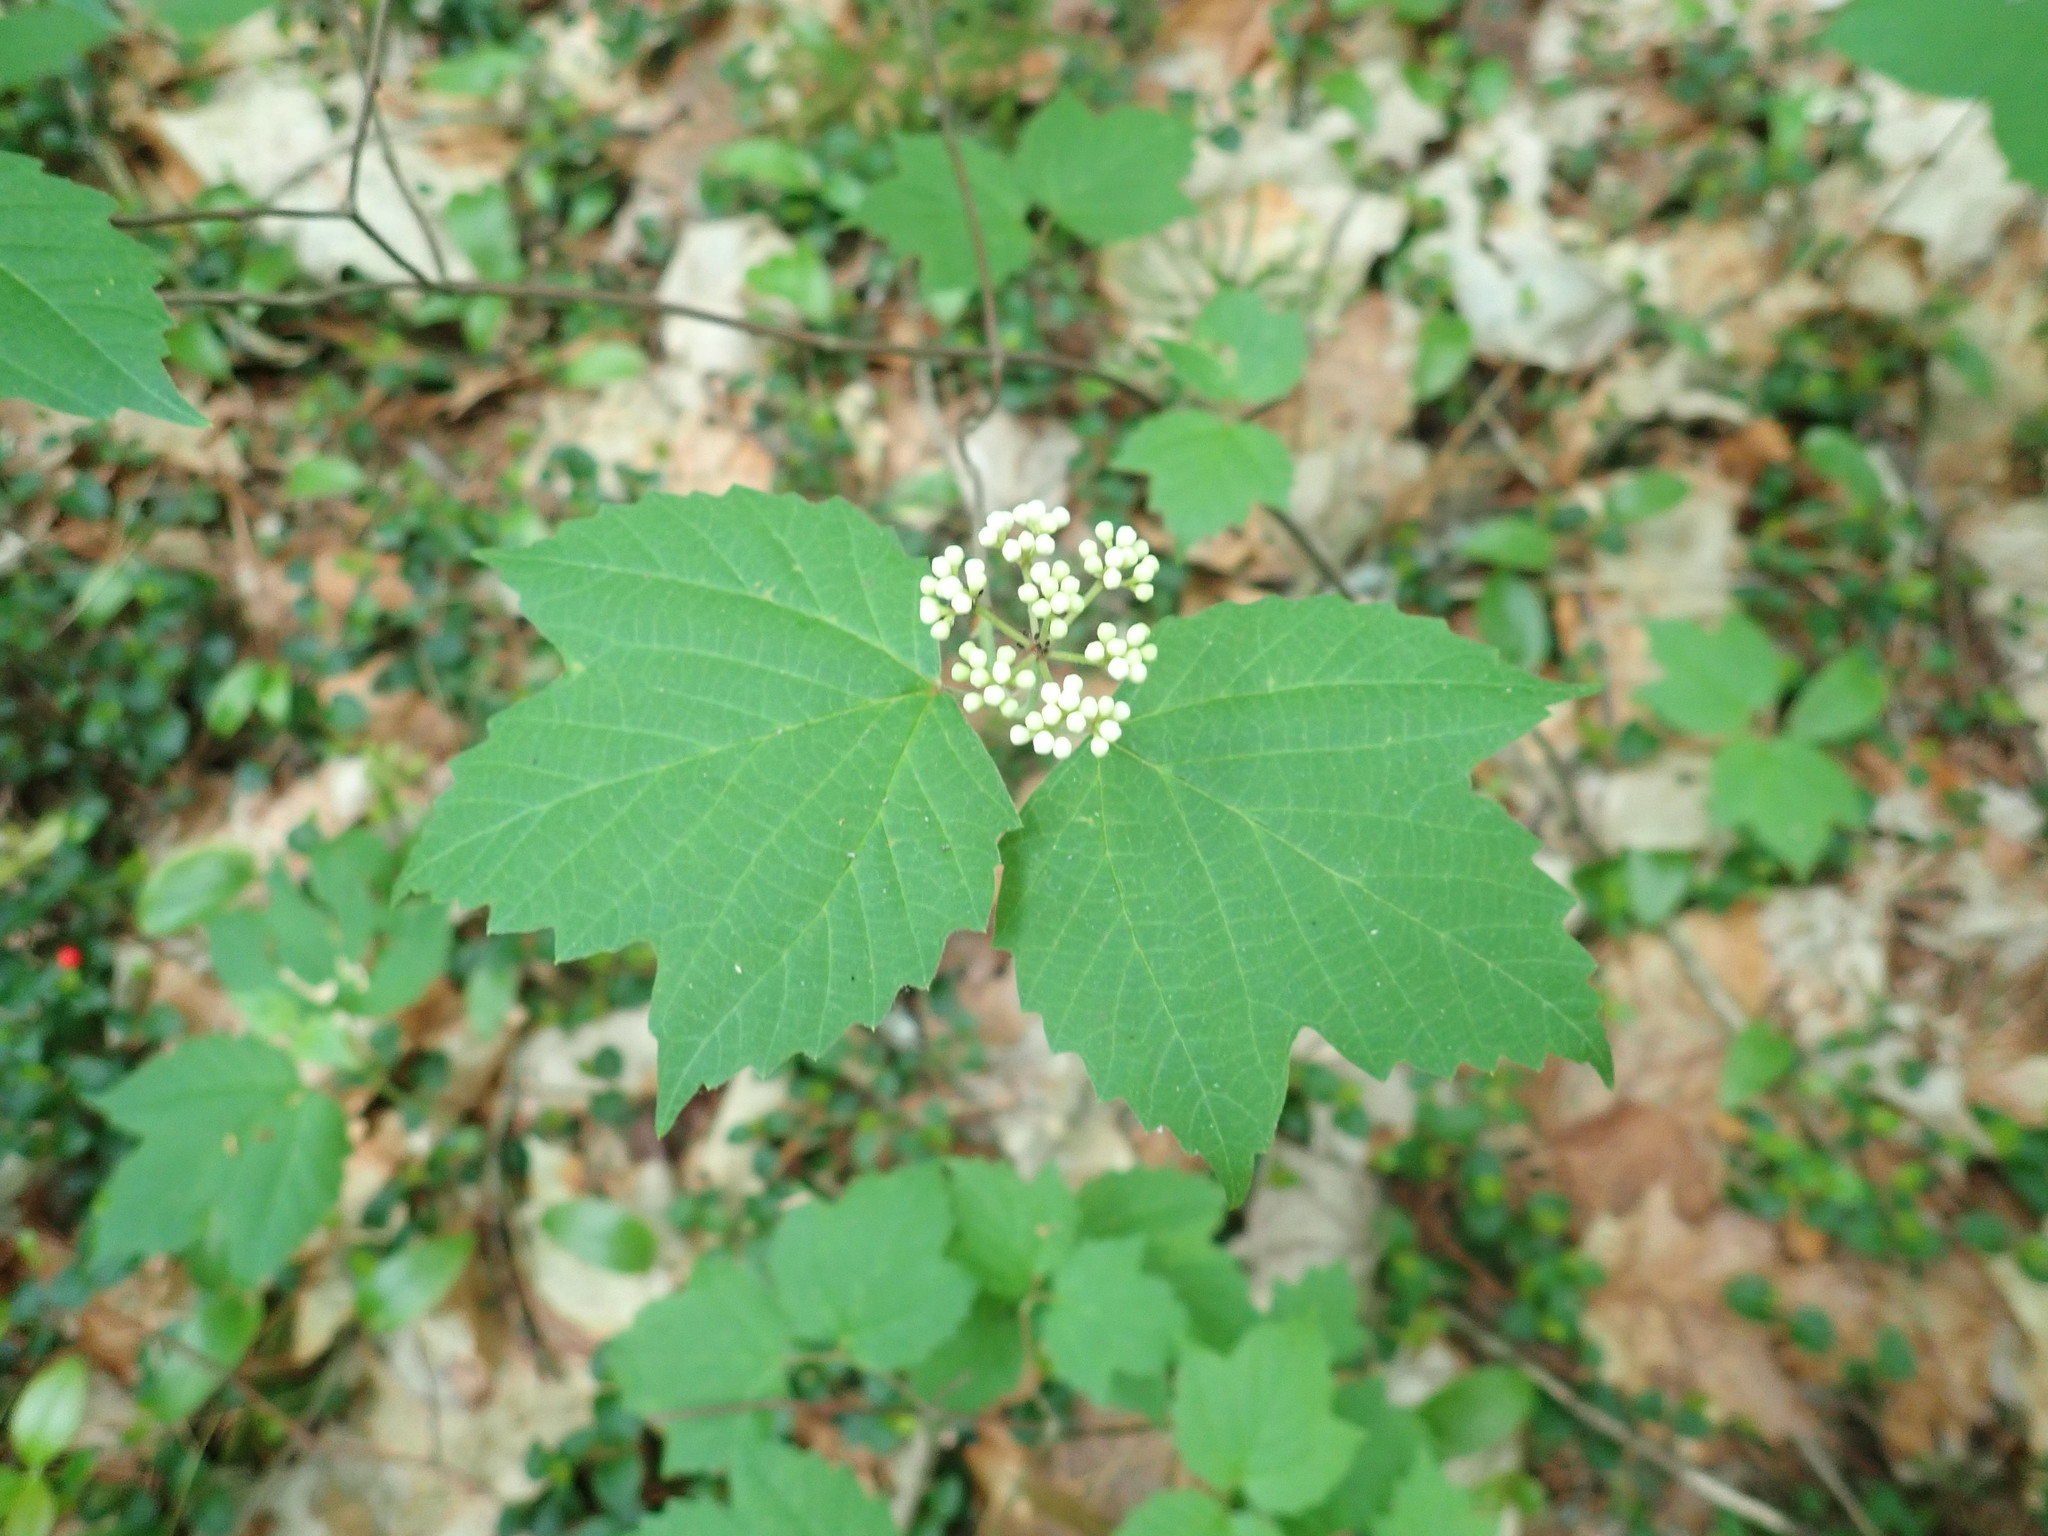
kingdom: Plantae
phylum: Tracheophyta
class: Magnoliopsida
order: Dipsacales
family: Viburnaceae
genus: Viburnum
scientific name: Viburnum acerifolium
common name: Dockmackie
